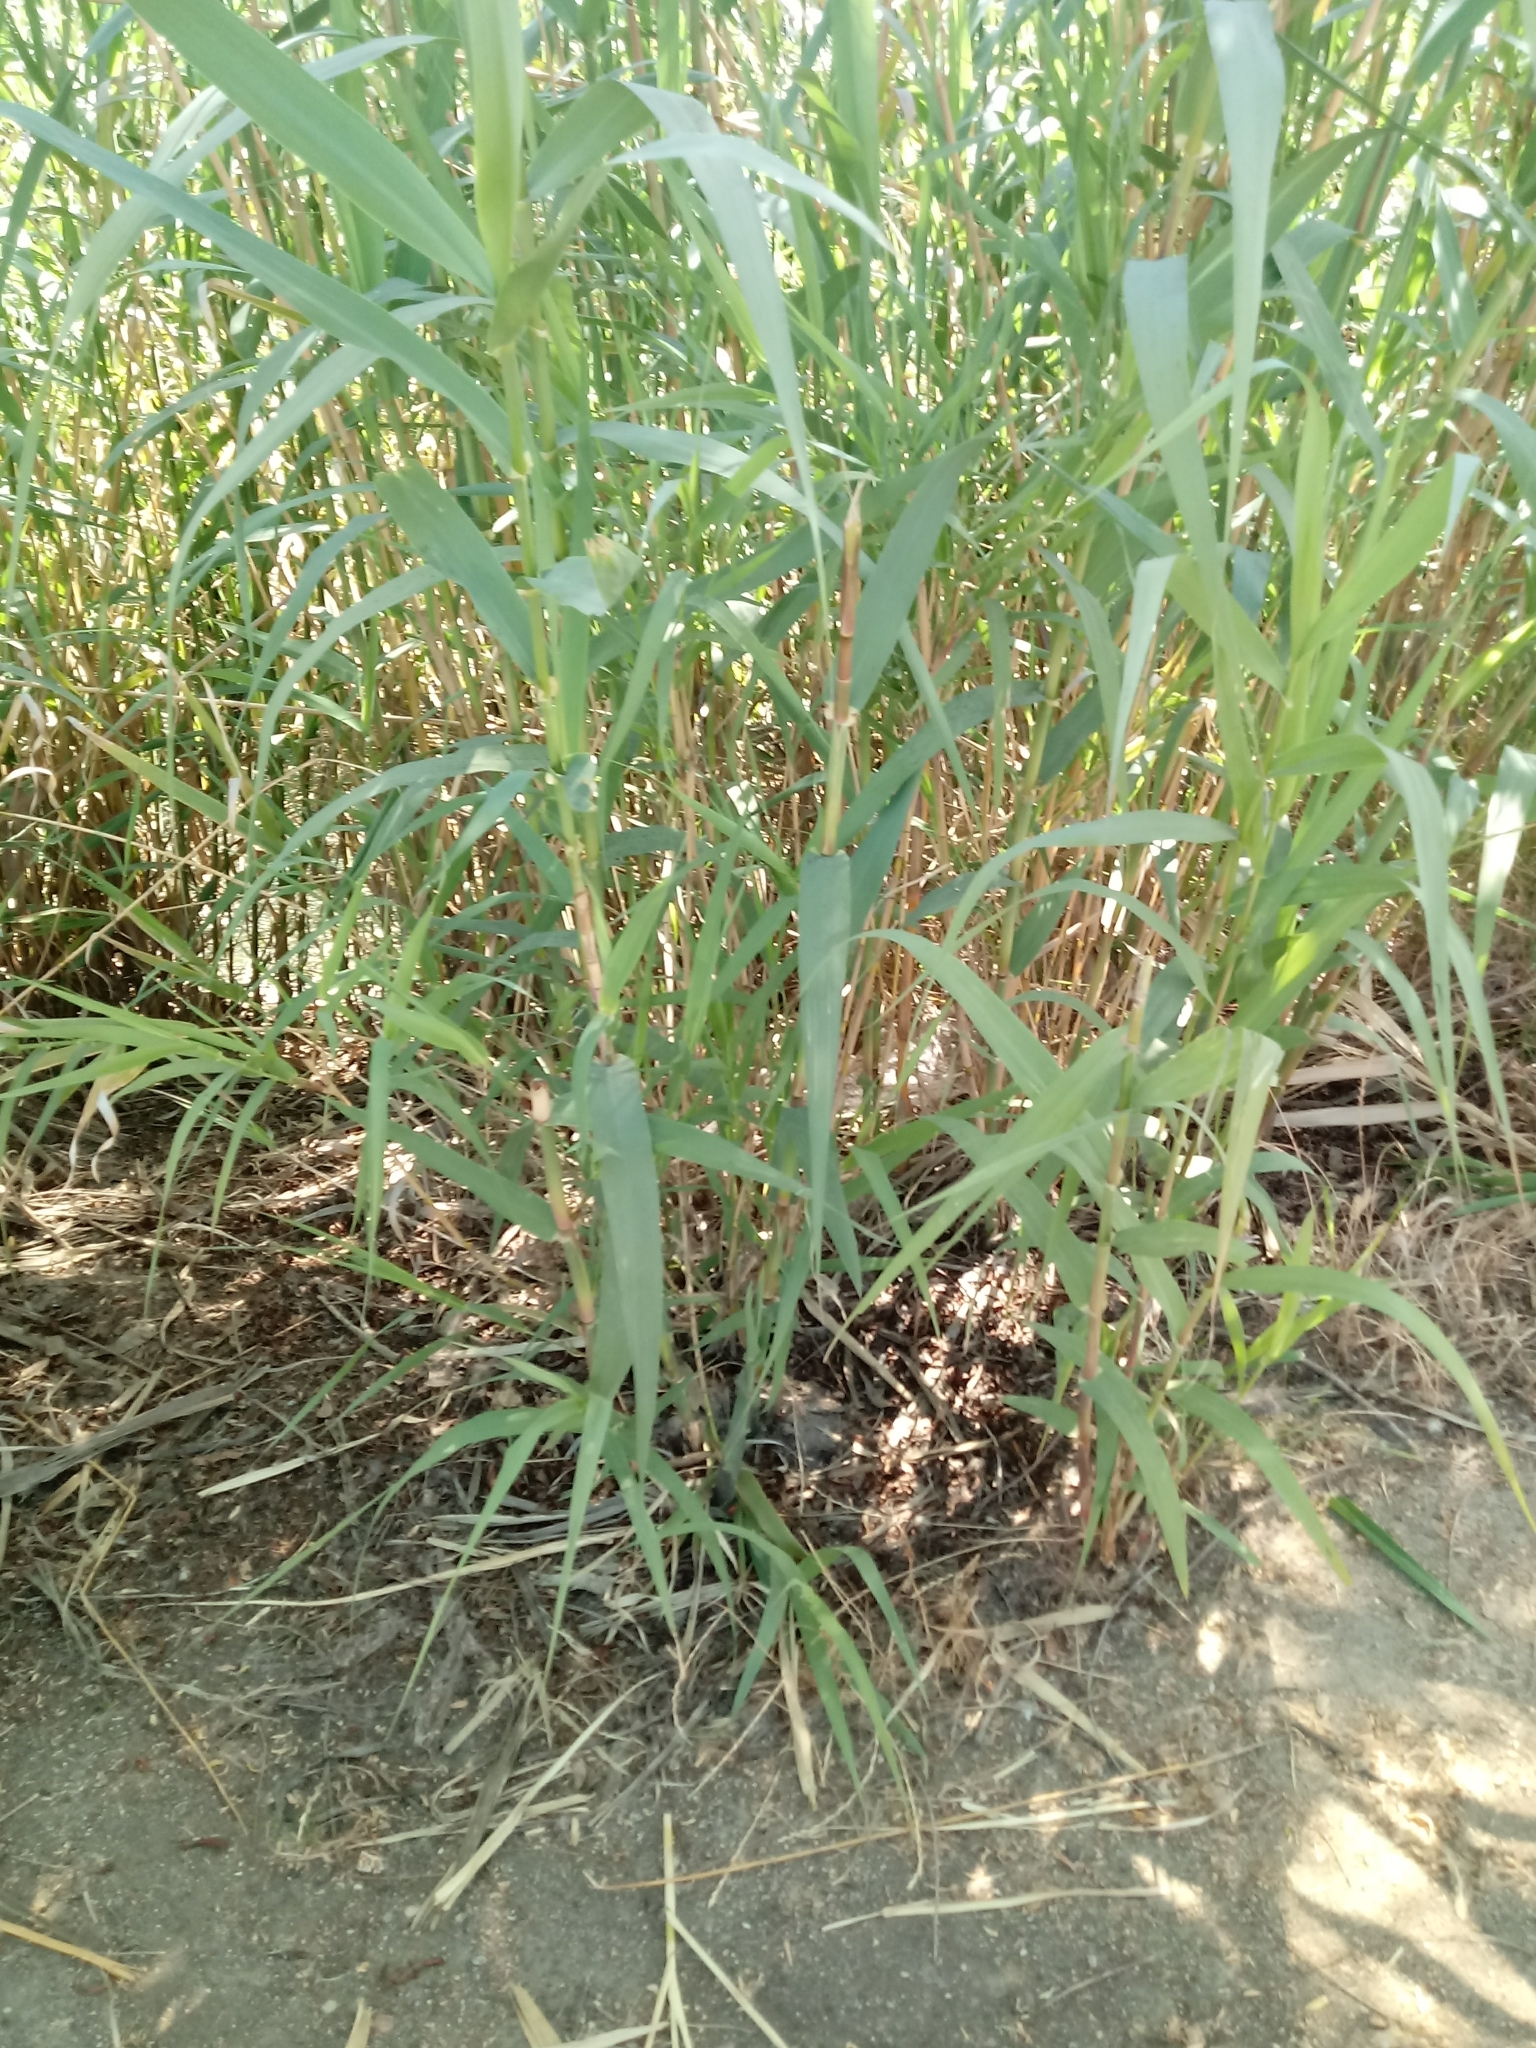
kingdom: Plantae
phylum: Tracheophyta
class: Liliopsida
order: Poales
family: Poaceae
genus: Arundo
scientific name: Arundo donax
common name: Giant reed
